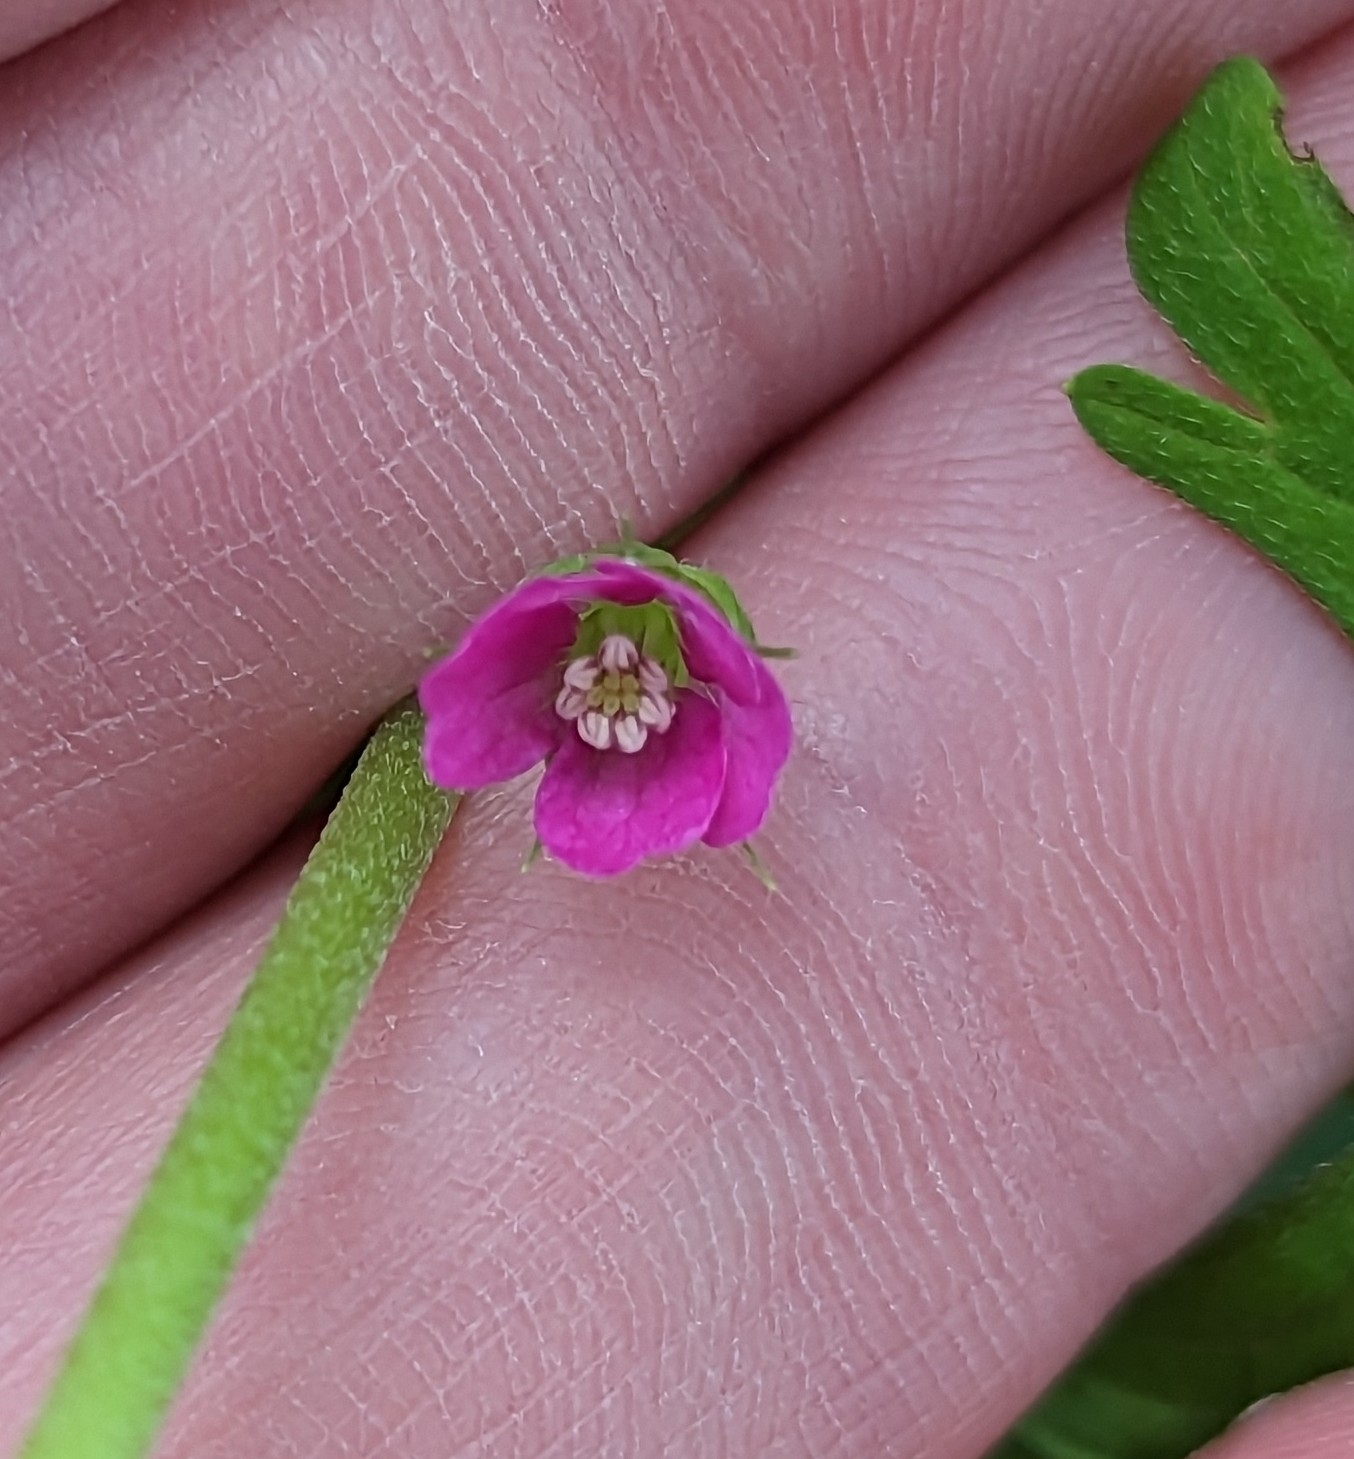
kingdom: Plantae
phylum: Tracheophyta
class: Magnoliopsida
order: Geraniales
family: Geraniaceae
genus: Geranium
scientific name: Geranium core-core
